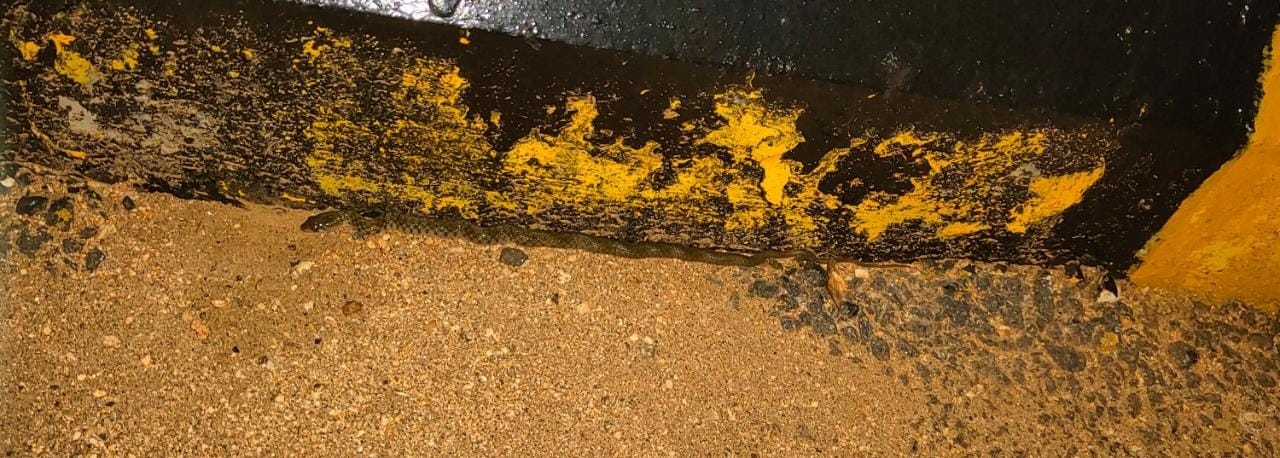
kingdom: Animalia
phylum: Chordata
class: Squamata
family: Colubridae
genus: Fowlea
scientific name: Fowlea piscator
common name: Asiatic water snake
